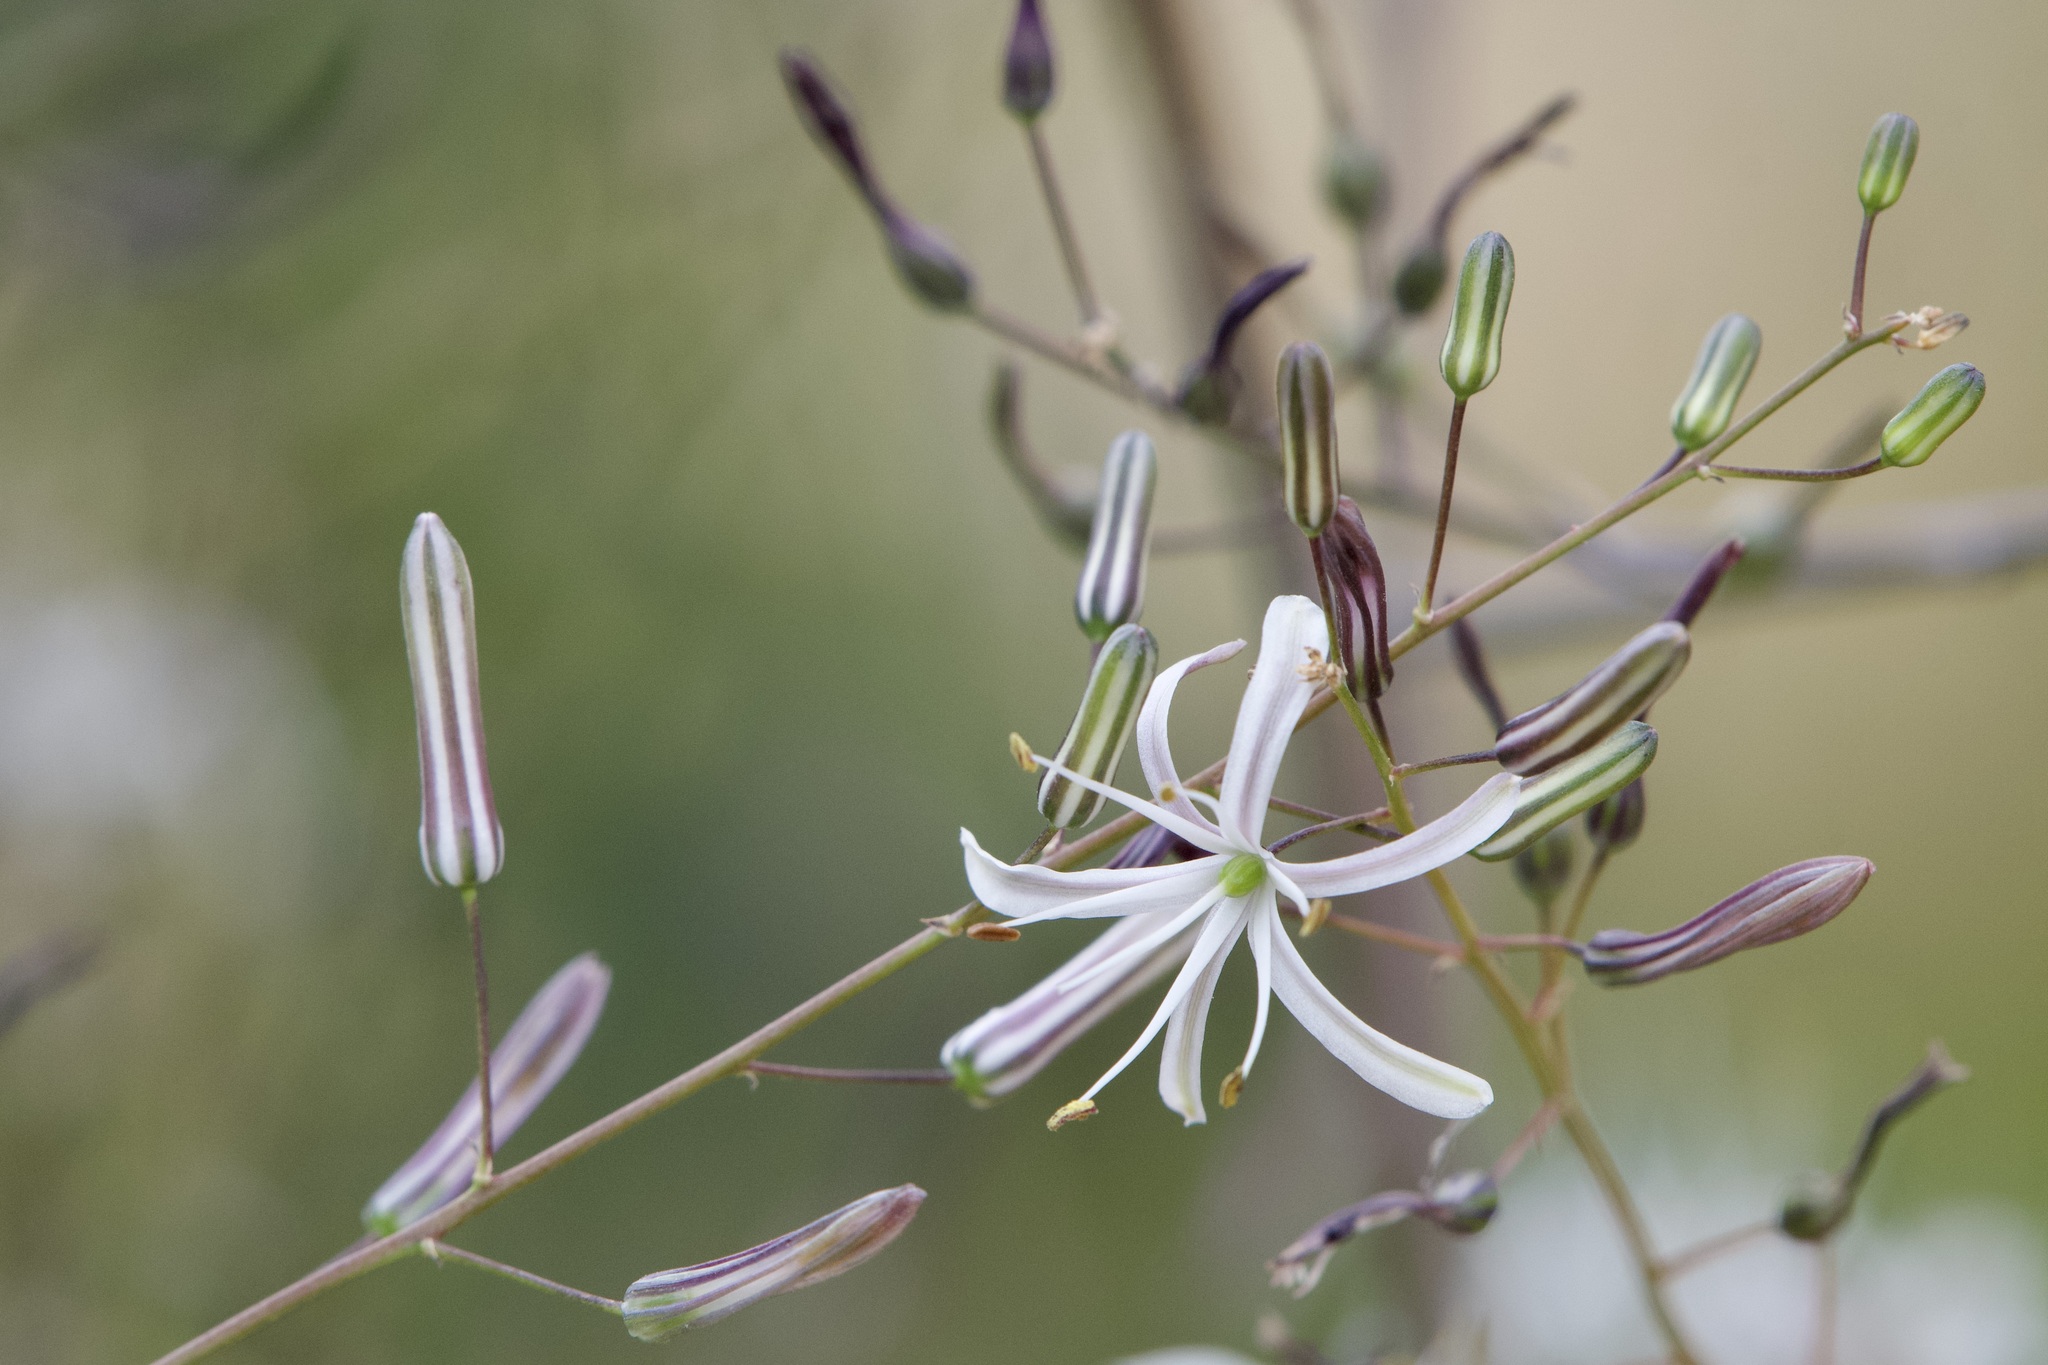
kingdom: Plantae
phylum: Tracheophyta
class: Liliopsida
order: Asparagales
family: Asparagaceae
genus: Chlorogalum
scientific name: Chlorogalum pomeridianum
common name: Amole
